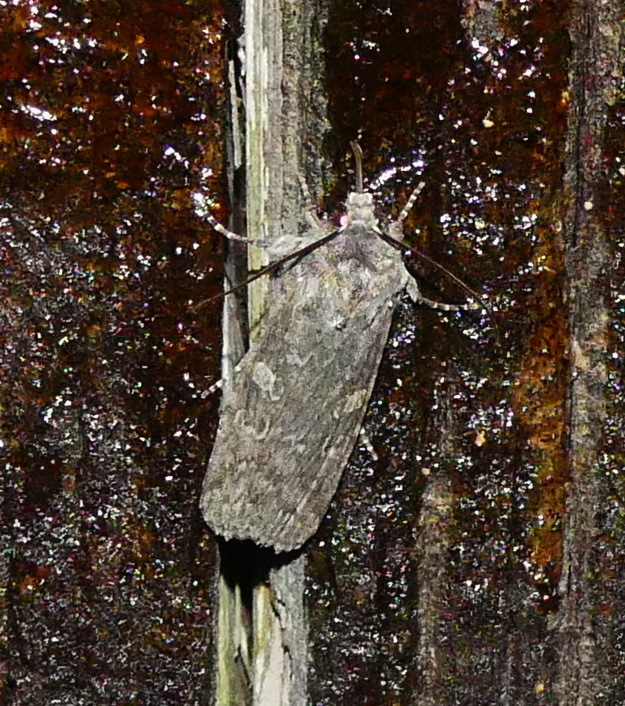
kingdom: Animalia
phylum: Arthropoda
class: Insecta
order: Lepidoptera
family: Noctuidae
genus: Lithophane
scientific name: Lithophane grotei
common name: Grote's pinion moth
